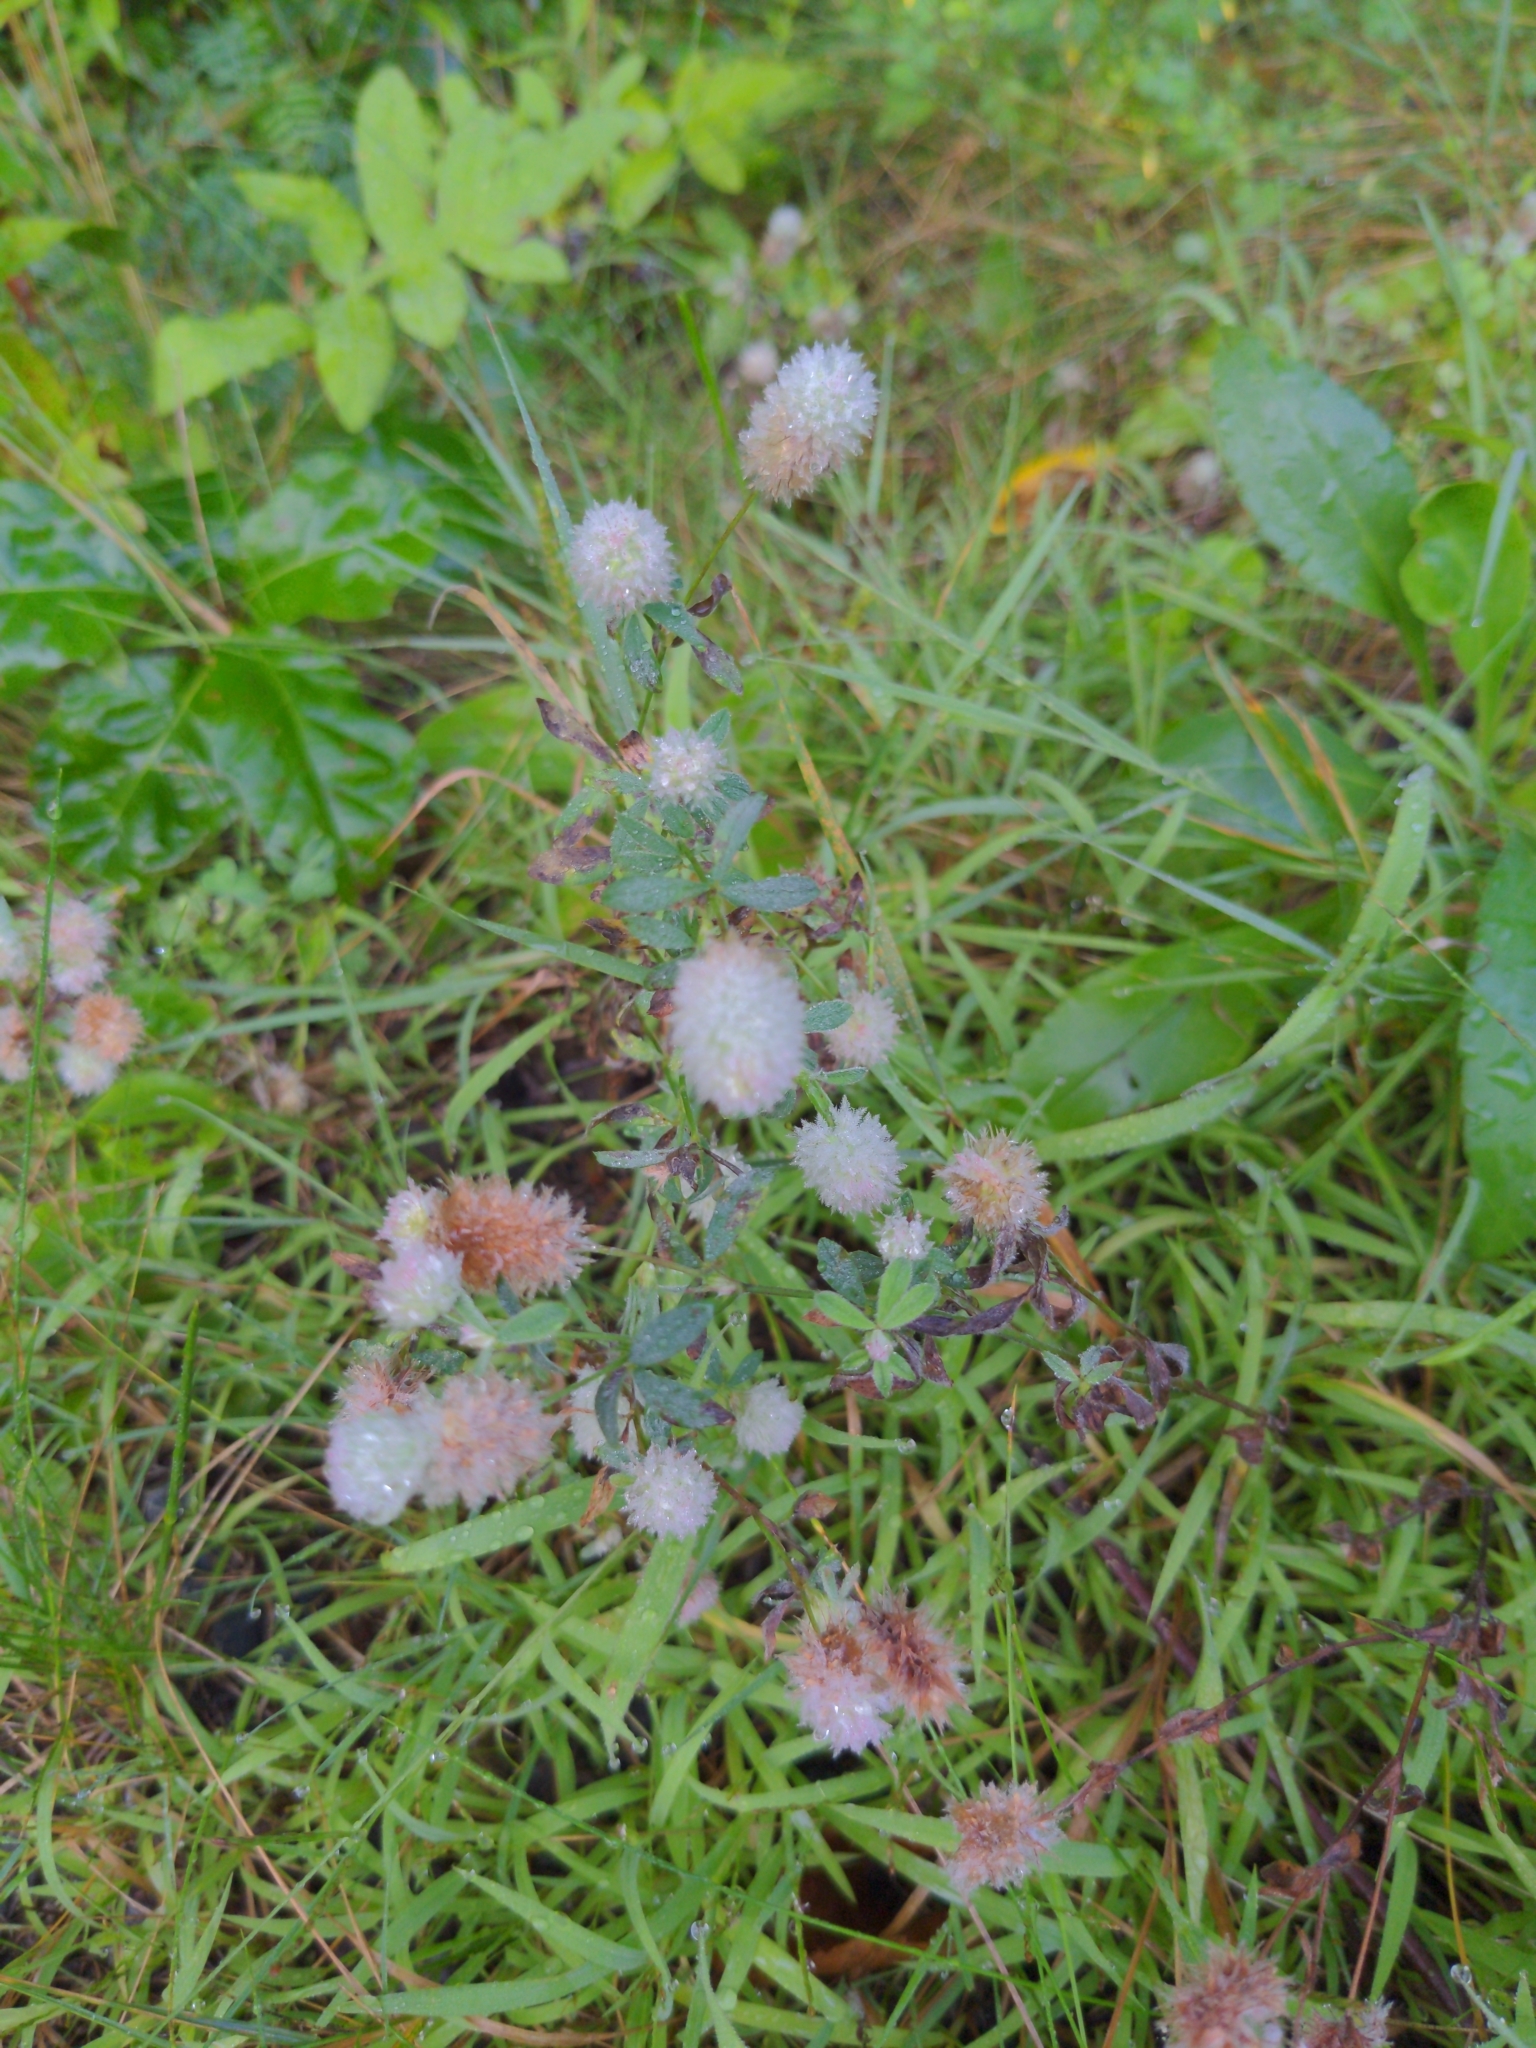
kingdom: Plantae
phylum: Tracheophyta
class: Magnoliopsida
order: Fabales
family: Fabaceae
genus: Trifolium
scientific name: Trifolium arvense
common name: Hare's-foot clover
